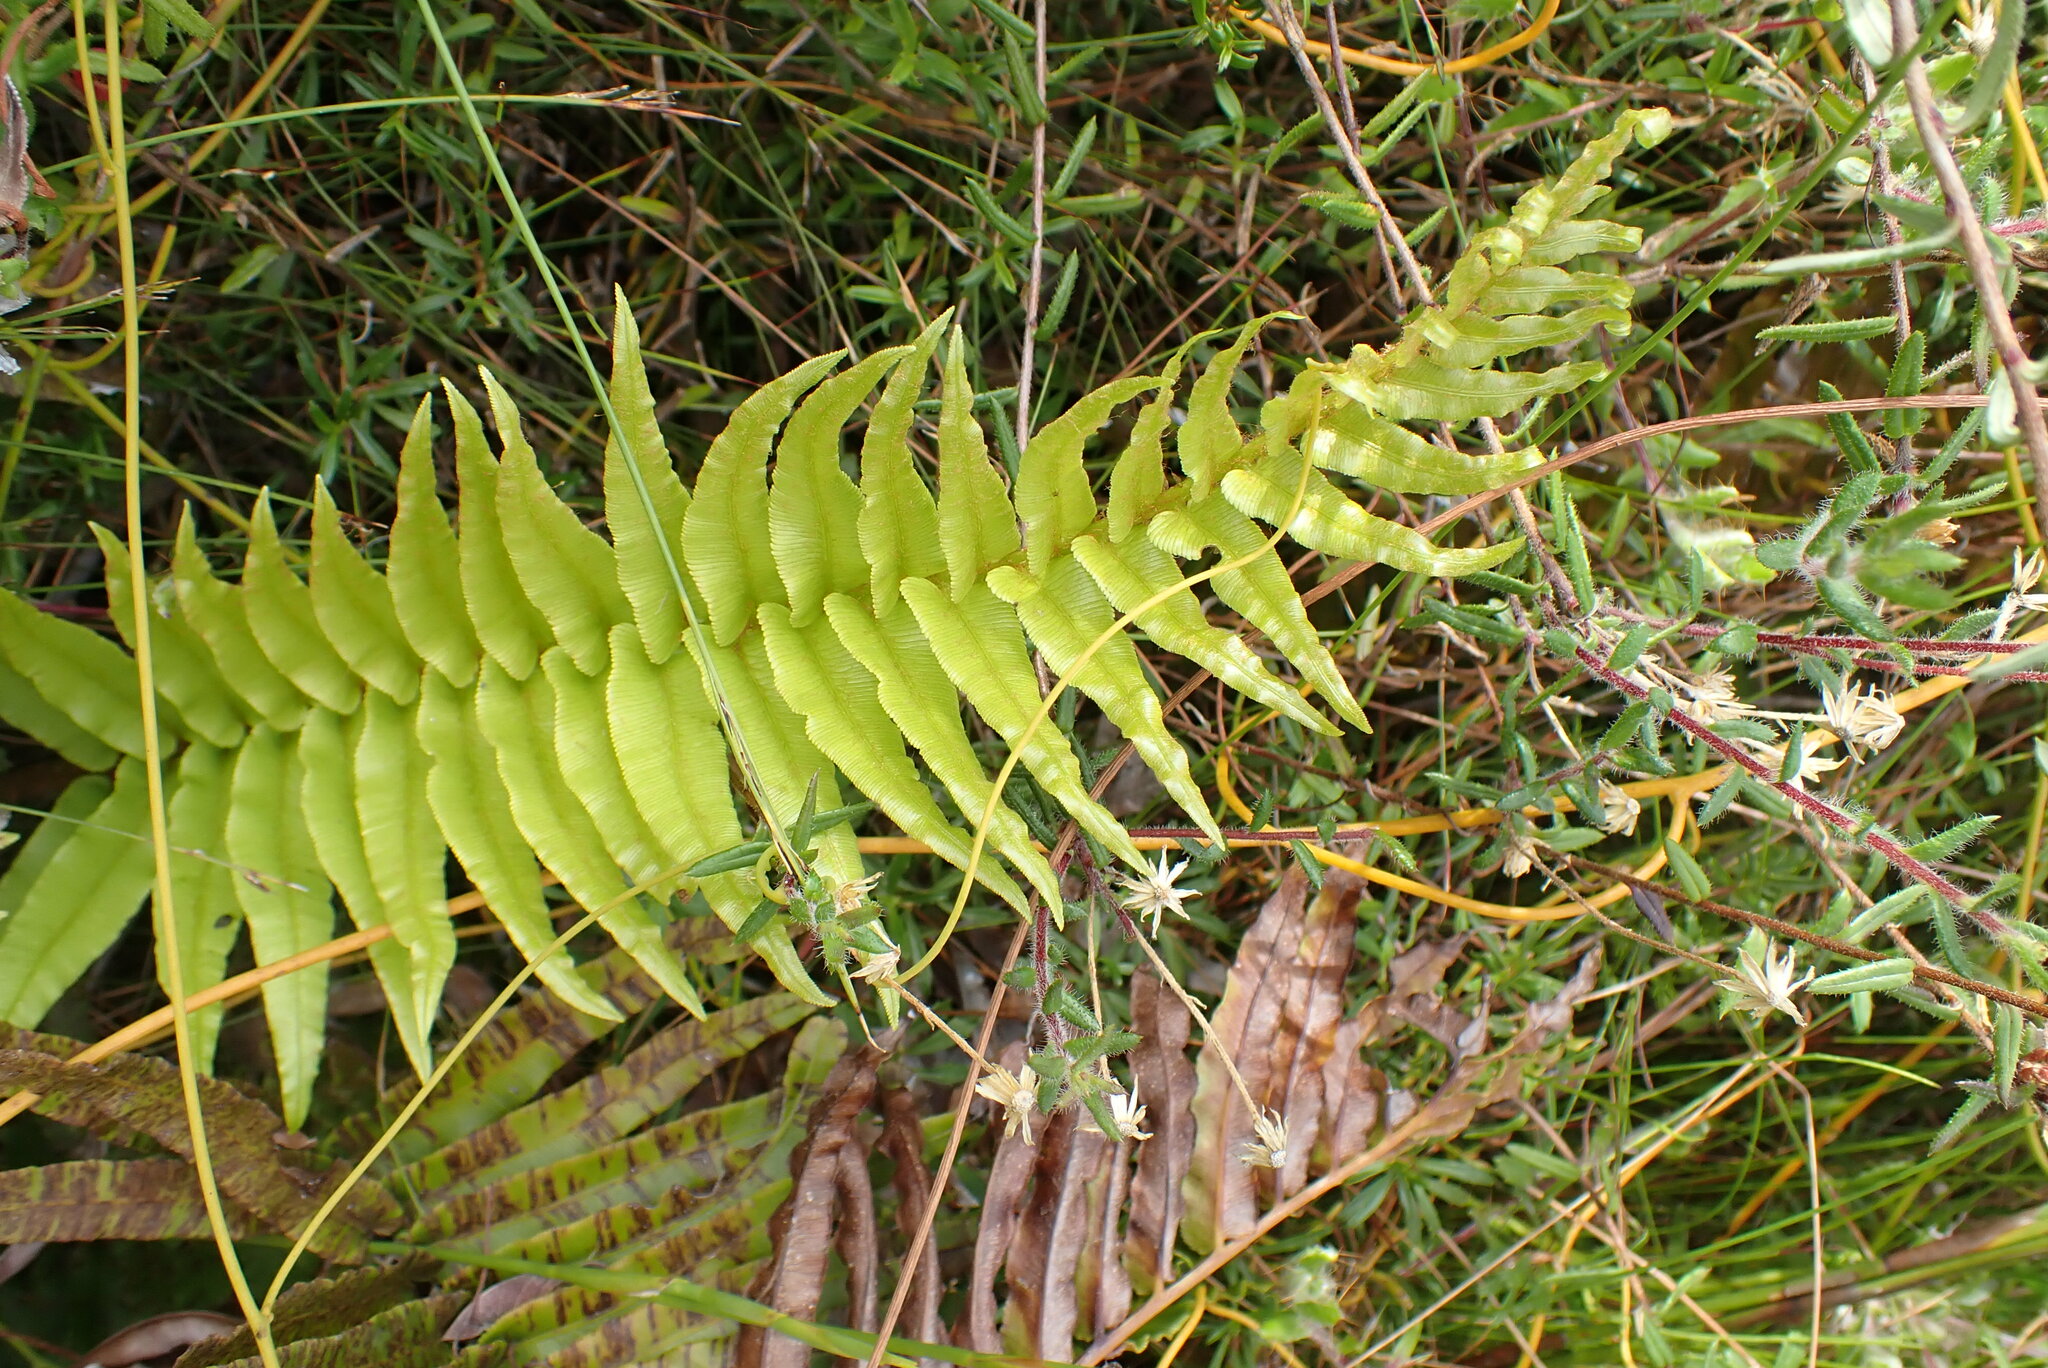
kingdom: Plantae
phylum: Tracheophyta
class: Polypodiopsida
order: Polypodiales
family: Blechnaceae
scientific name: Blechnaceae
